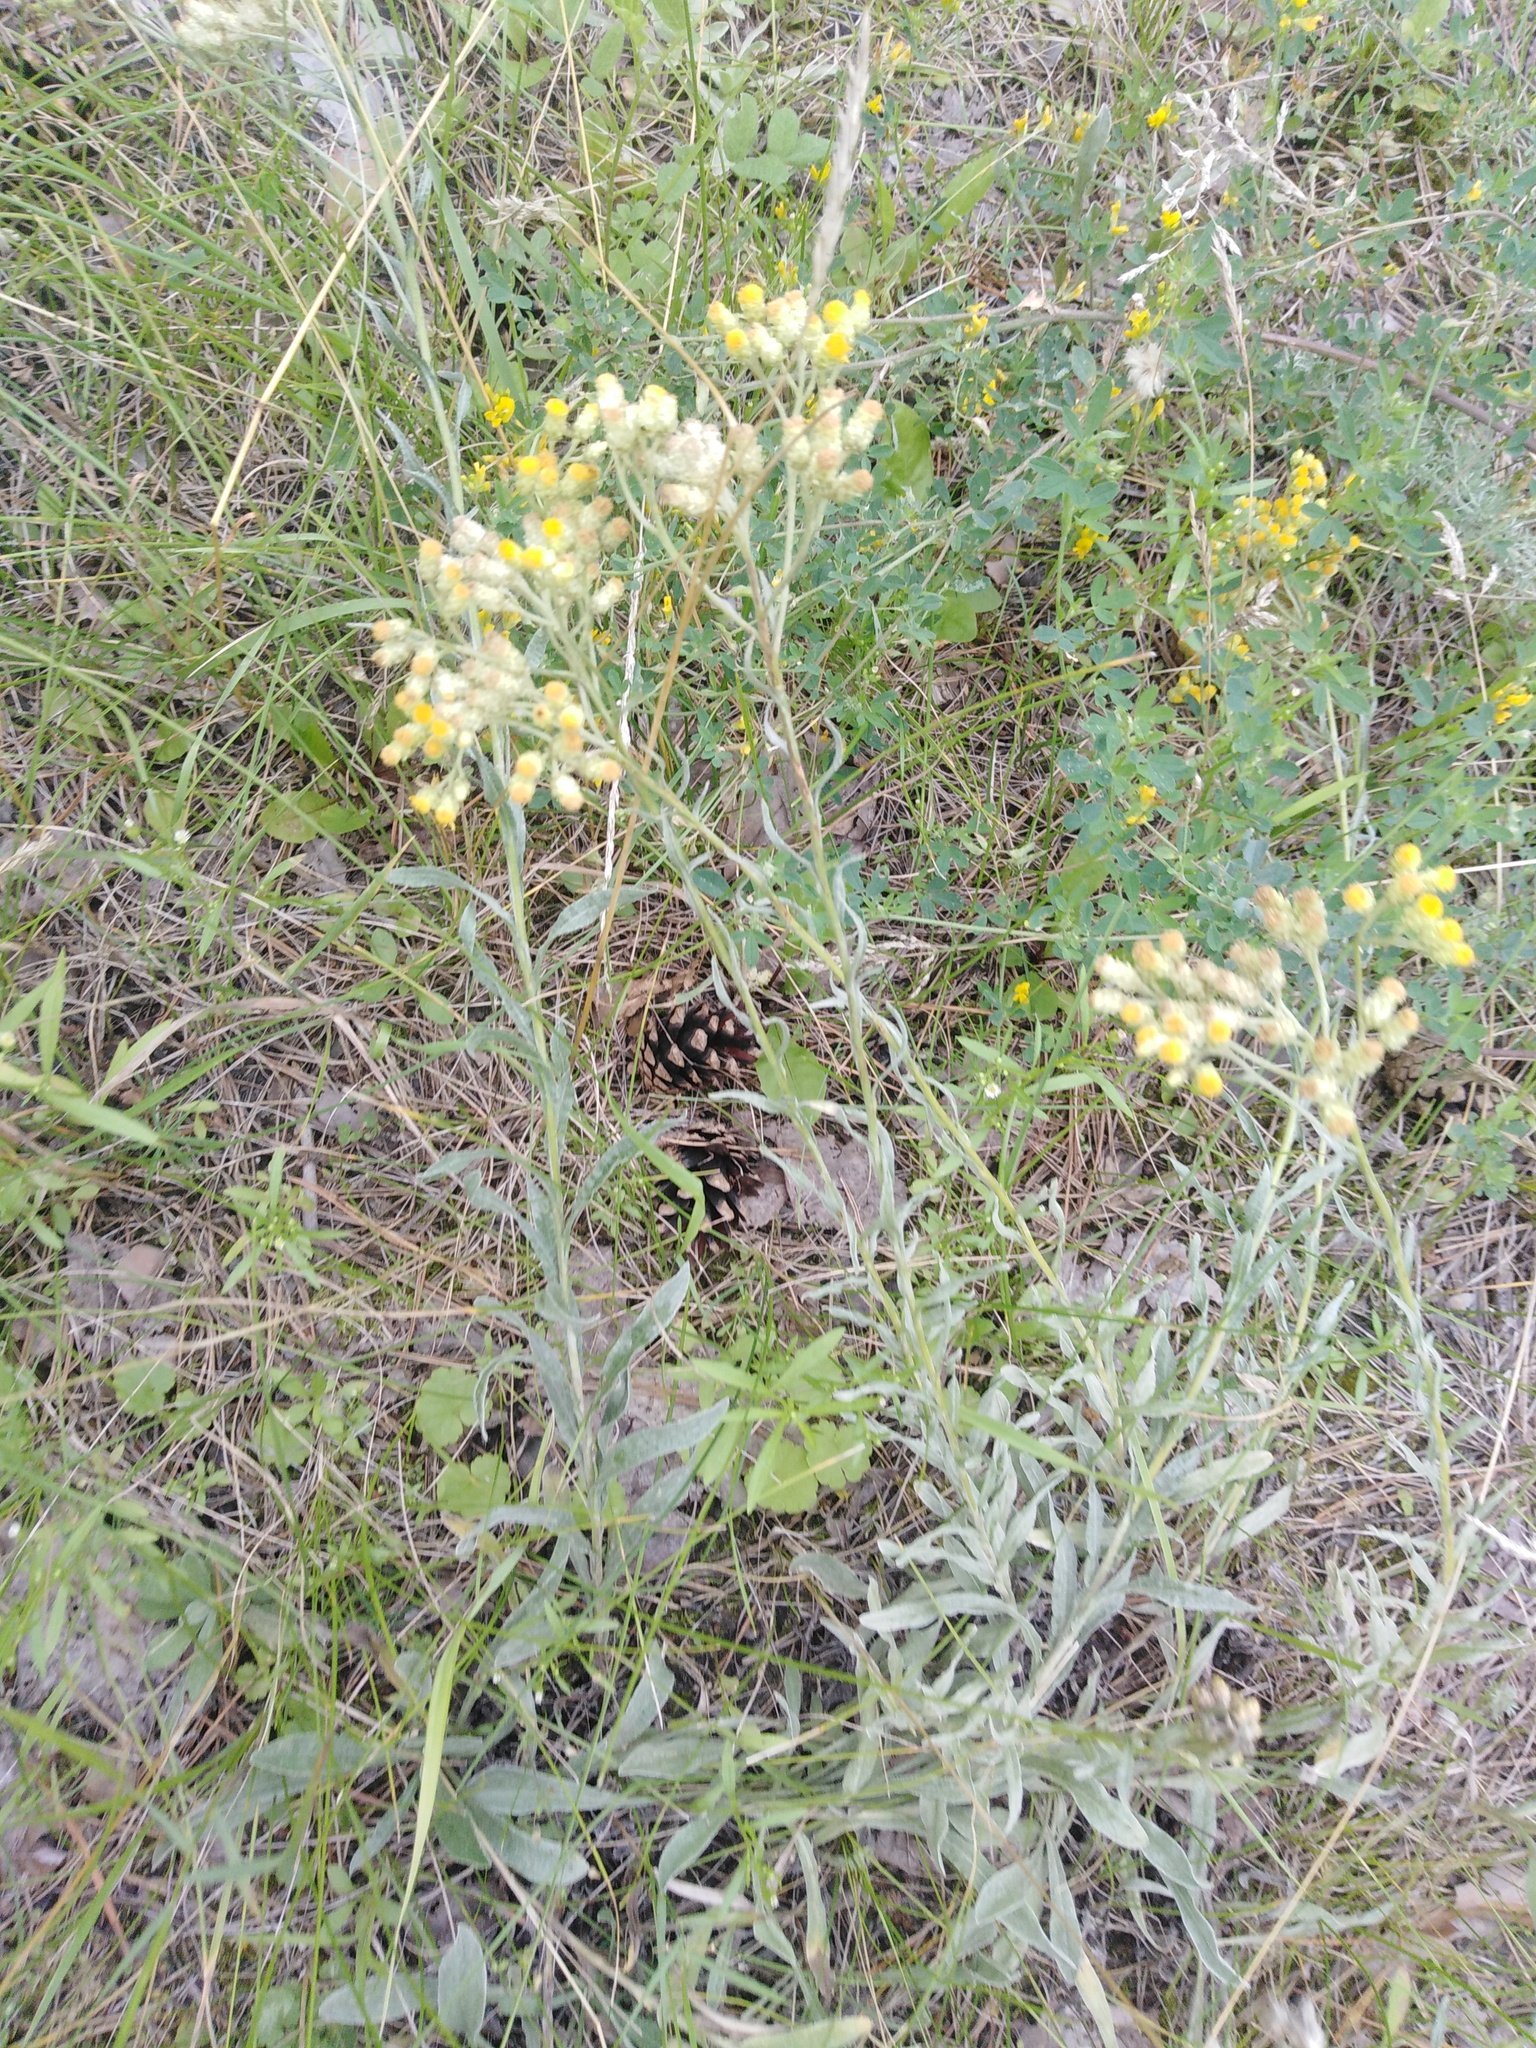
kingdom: Plantae
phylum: Tracheophyta
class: Magnoliopsida
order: Asterales
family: Asteraceae
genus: Helichrysum
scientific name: Helichrysum arenarium
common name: Strawflower
